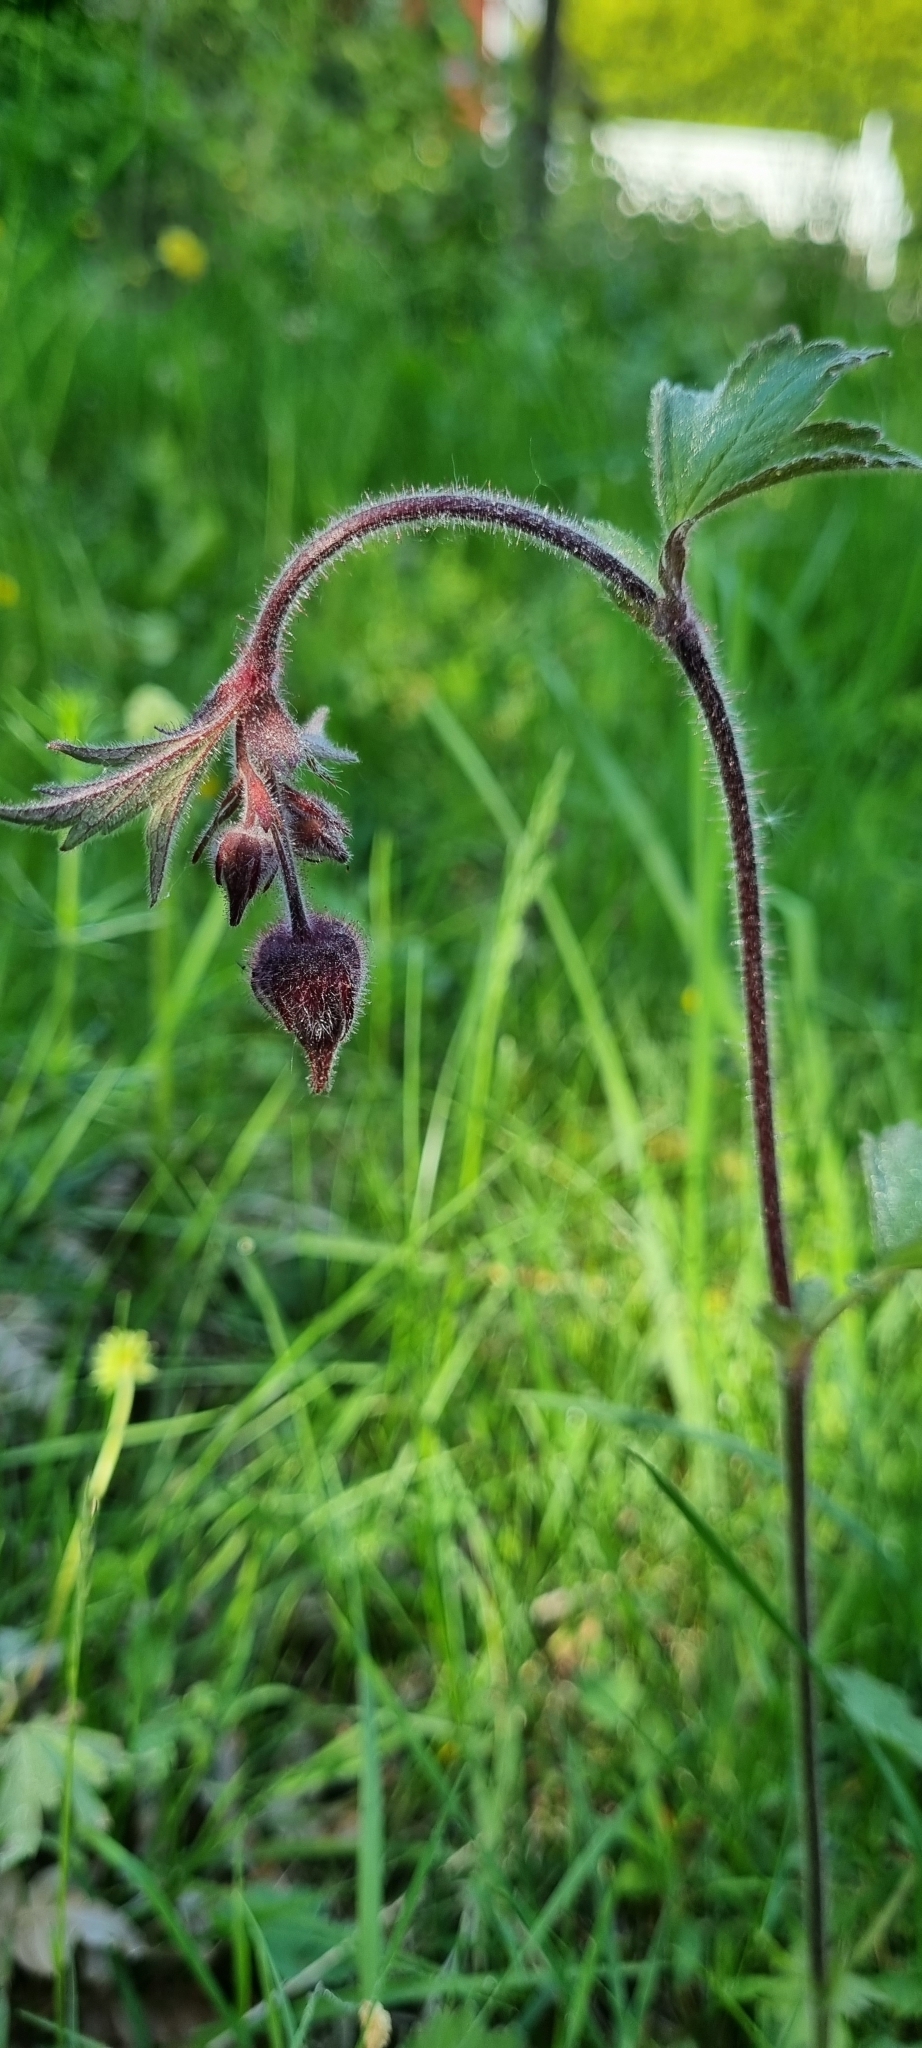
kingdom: Plantae
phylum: Tracheophyta
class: Magnoliopsida
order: Rosales
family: Rosaceae
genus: Geum
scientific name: Geum rivale
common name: Water avens
